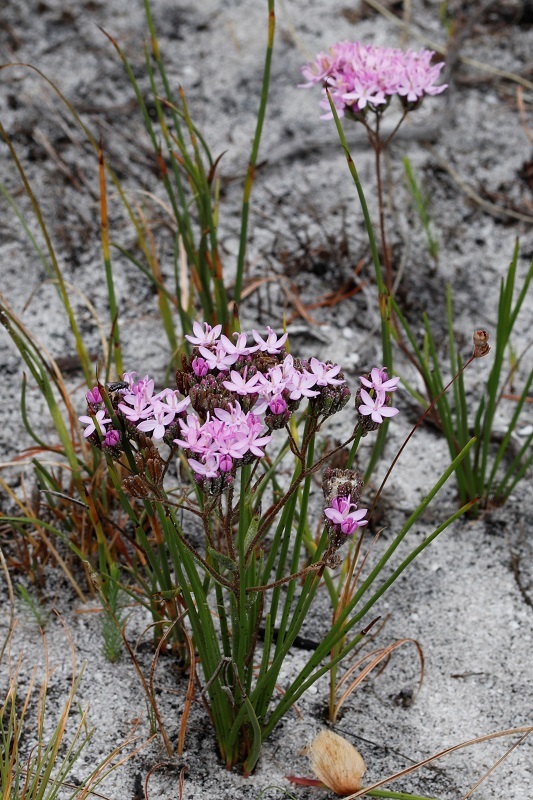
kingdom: Plantae
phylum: Tracheophyta
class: Magnoliopsida
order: Asterales
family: Asteraceae
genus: Corymbium
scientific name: Corymbium africanum
